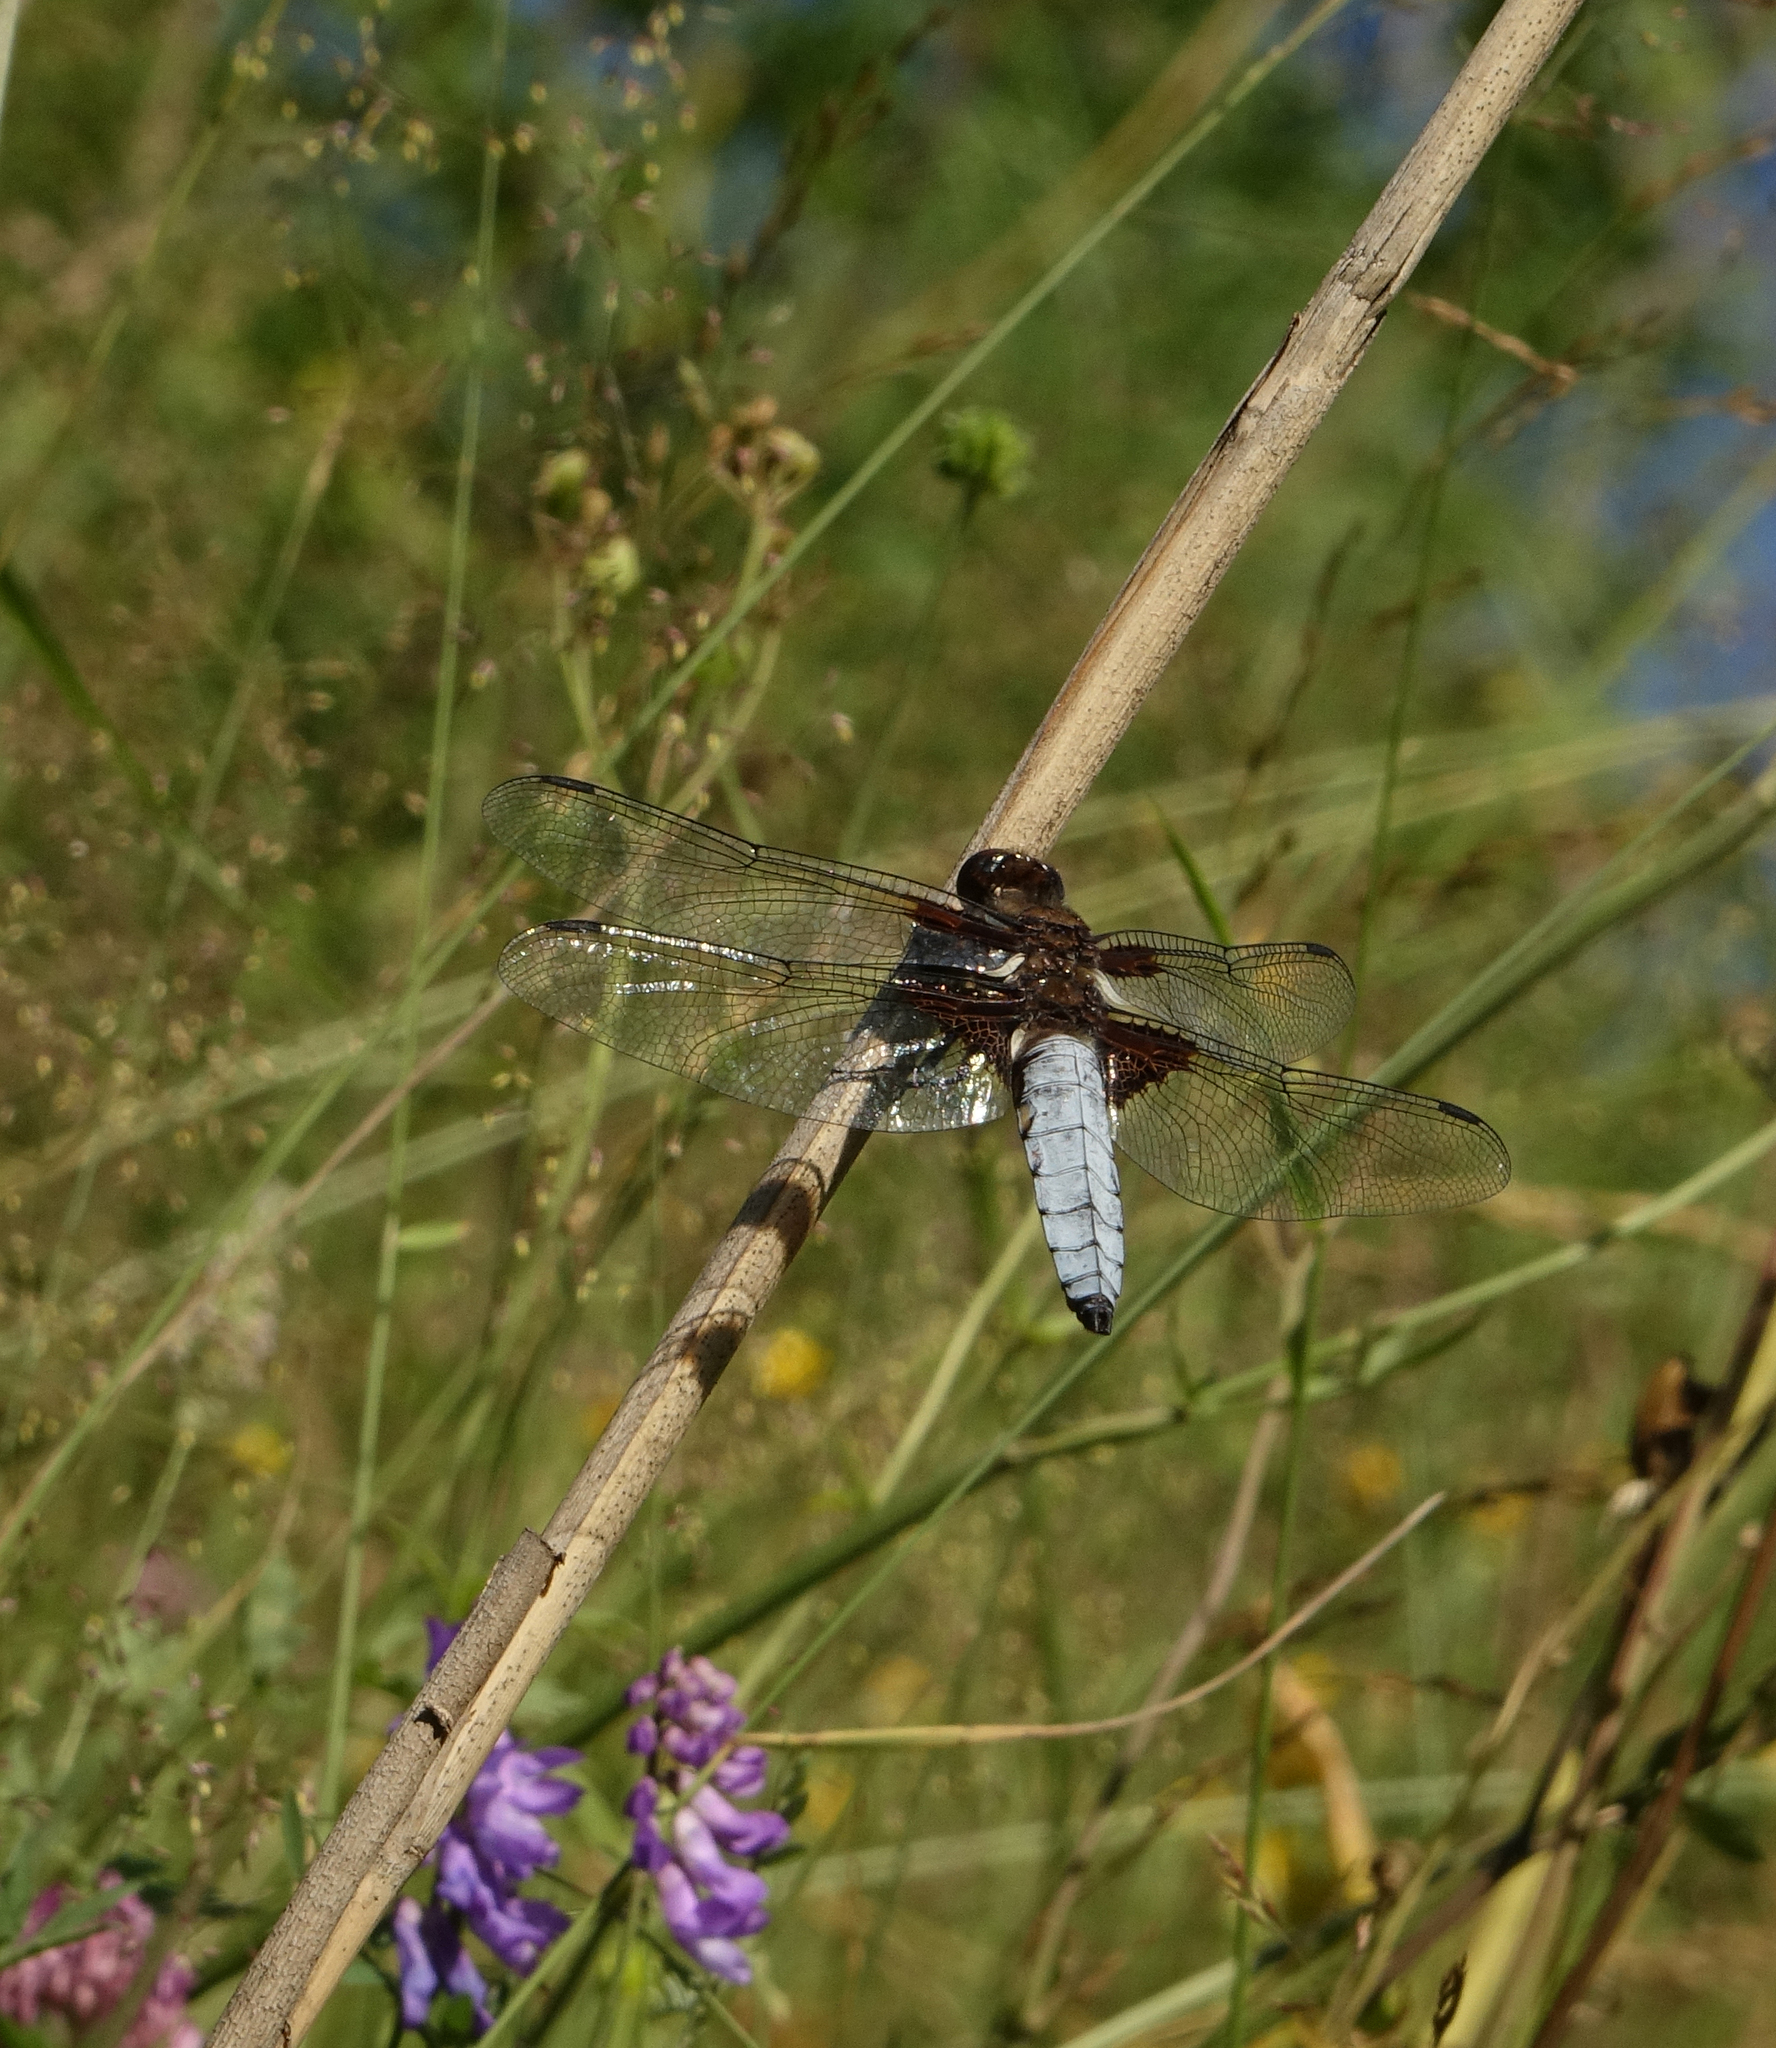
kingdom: Animalia
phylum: Arthropoda
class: Insecta
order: Odonata
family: Libellulidae
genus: Libellula
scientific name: Libellula depressa
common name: Broad-bodied chaser
